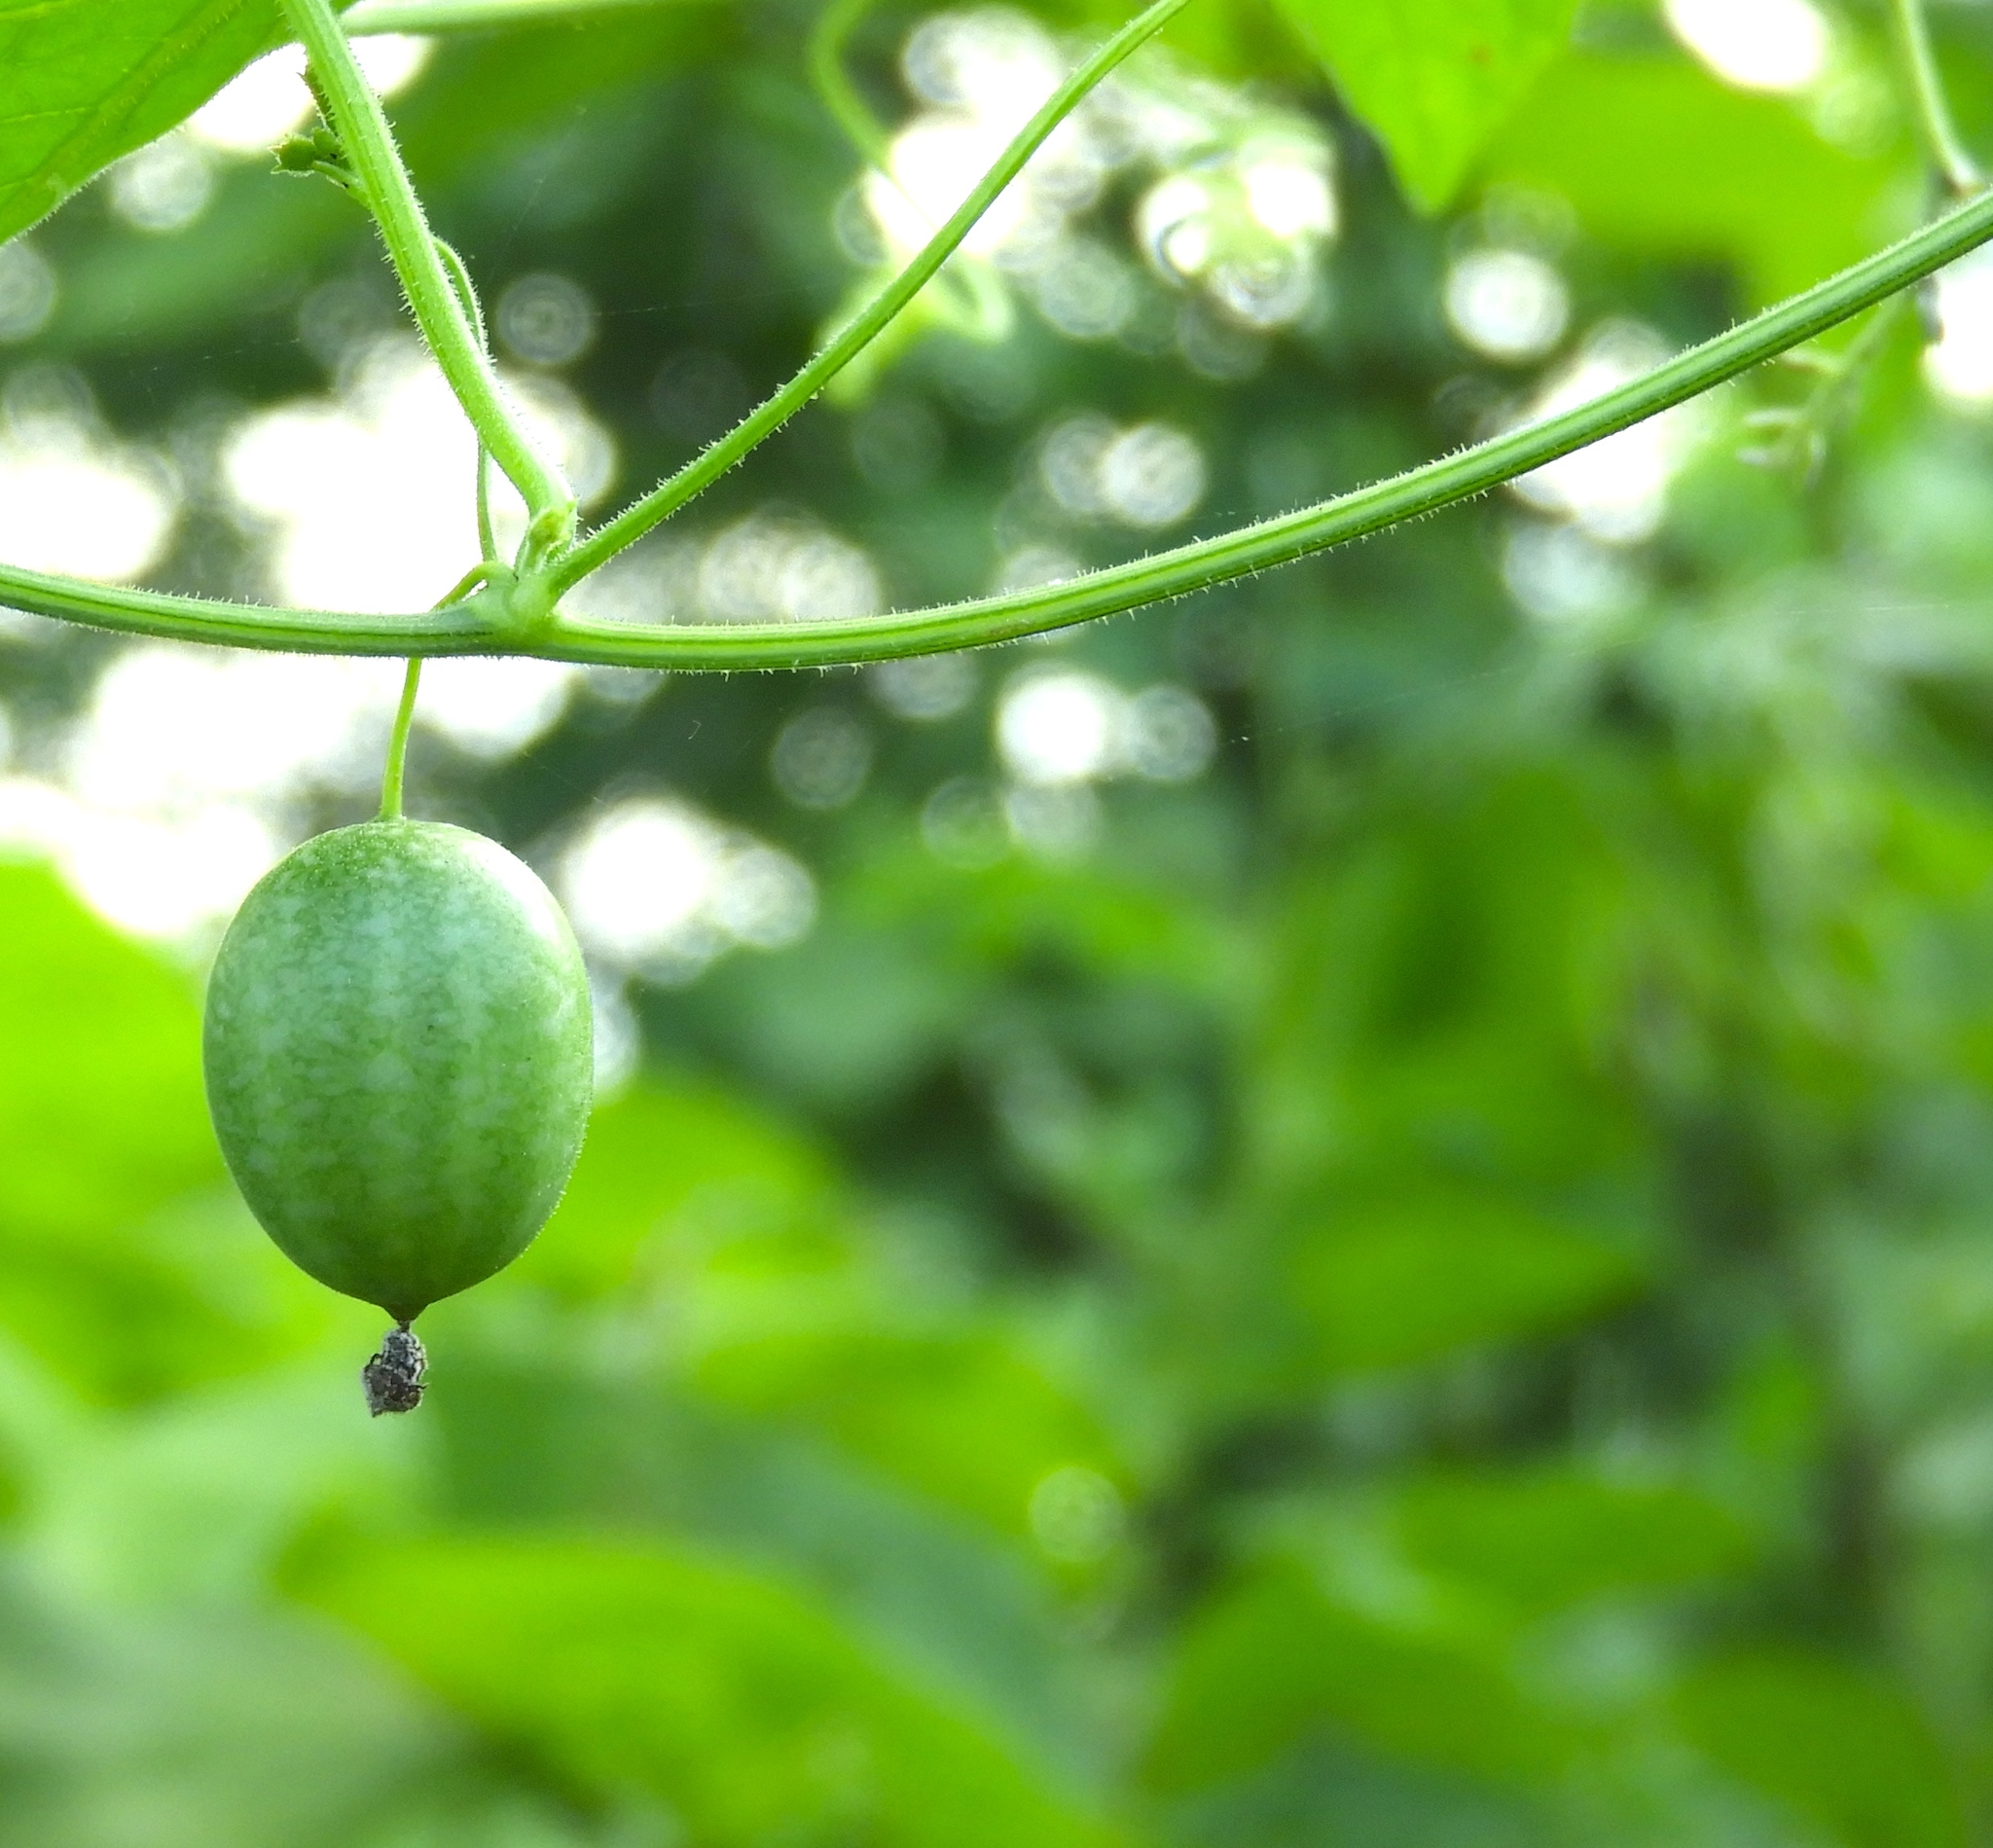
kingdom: Plantae
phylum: Tracheophyta
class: Magnoliopsida
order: Cucurbitales
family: Cucurbitaceae
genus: Melothria
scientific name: Melothria pendula
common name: Creeping-cucumber
